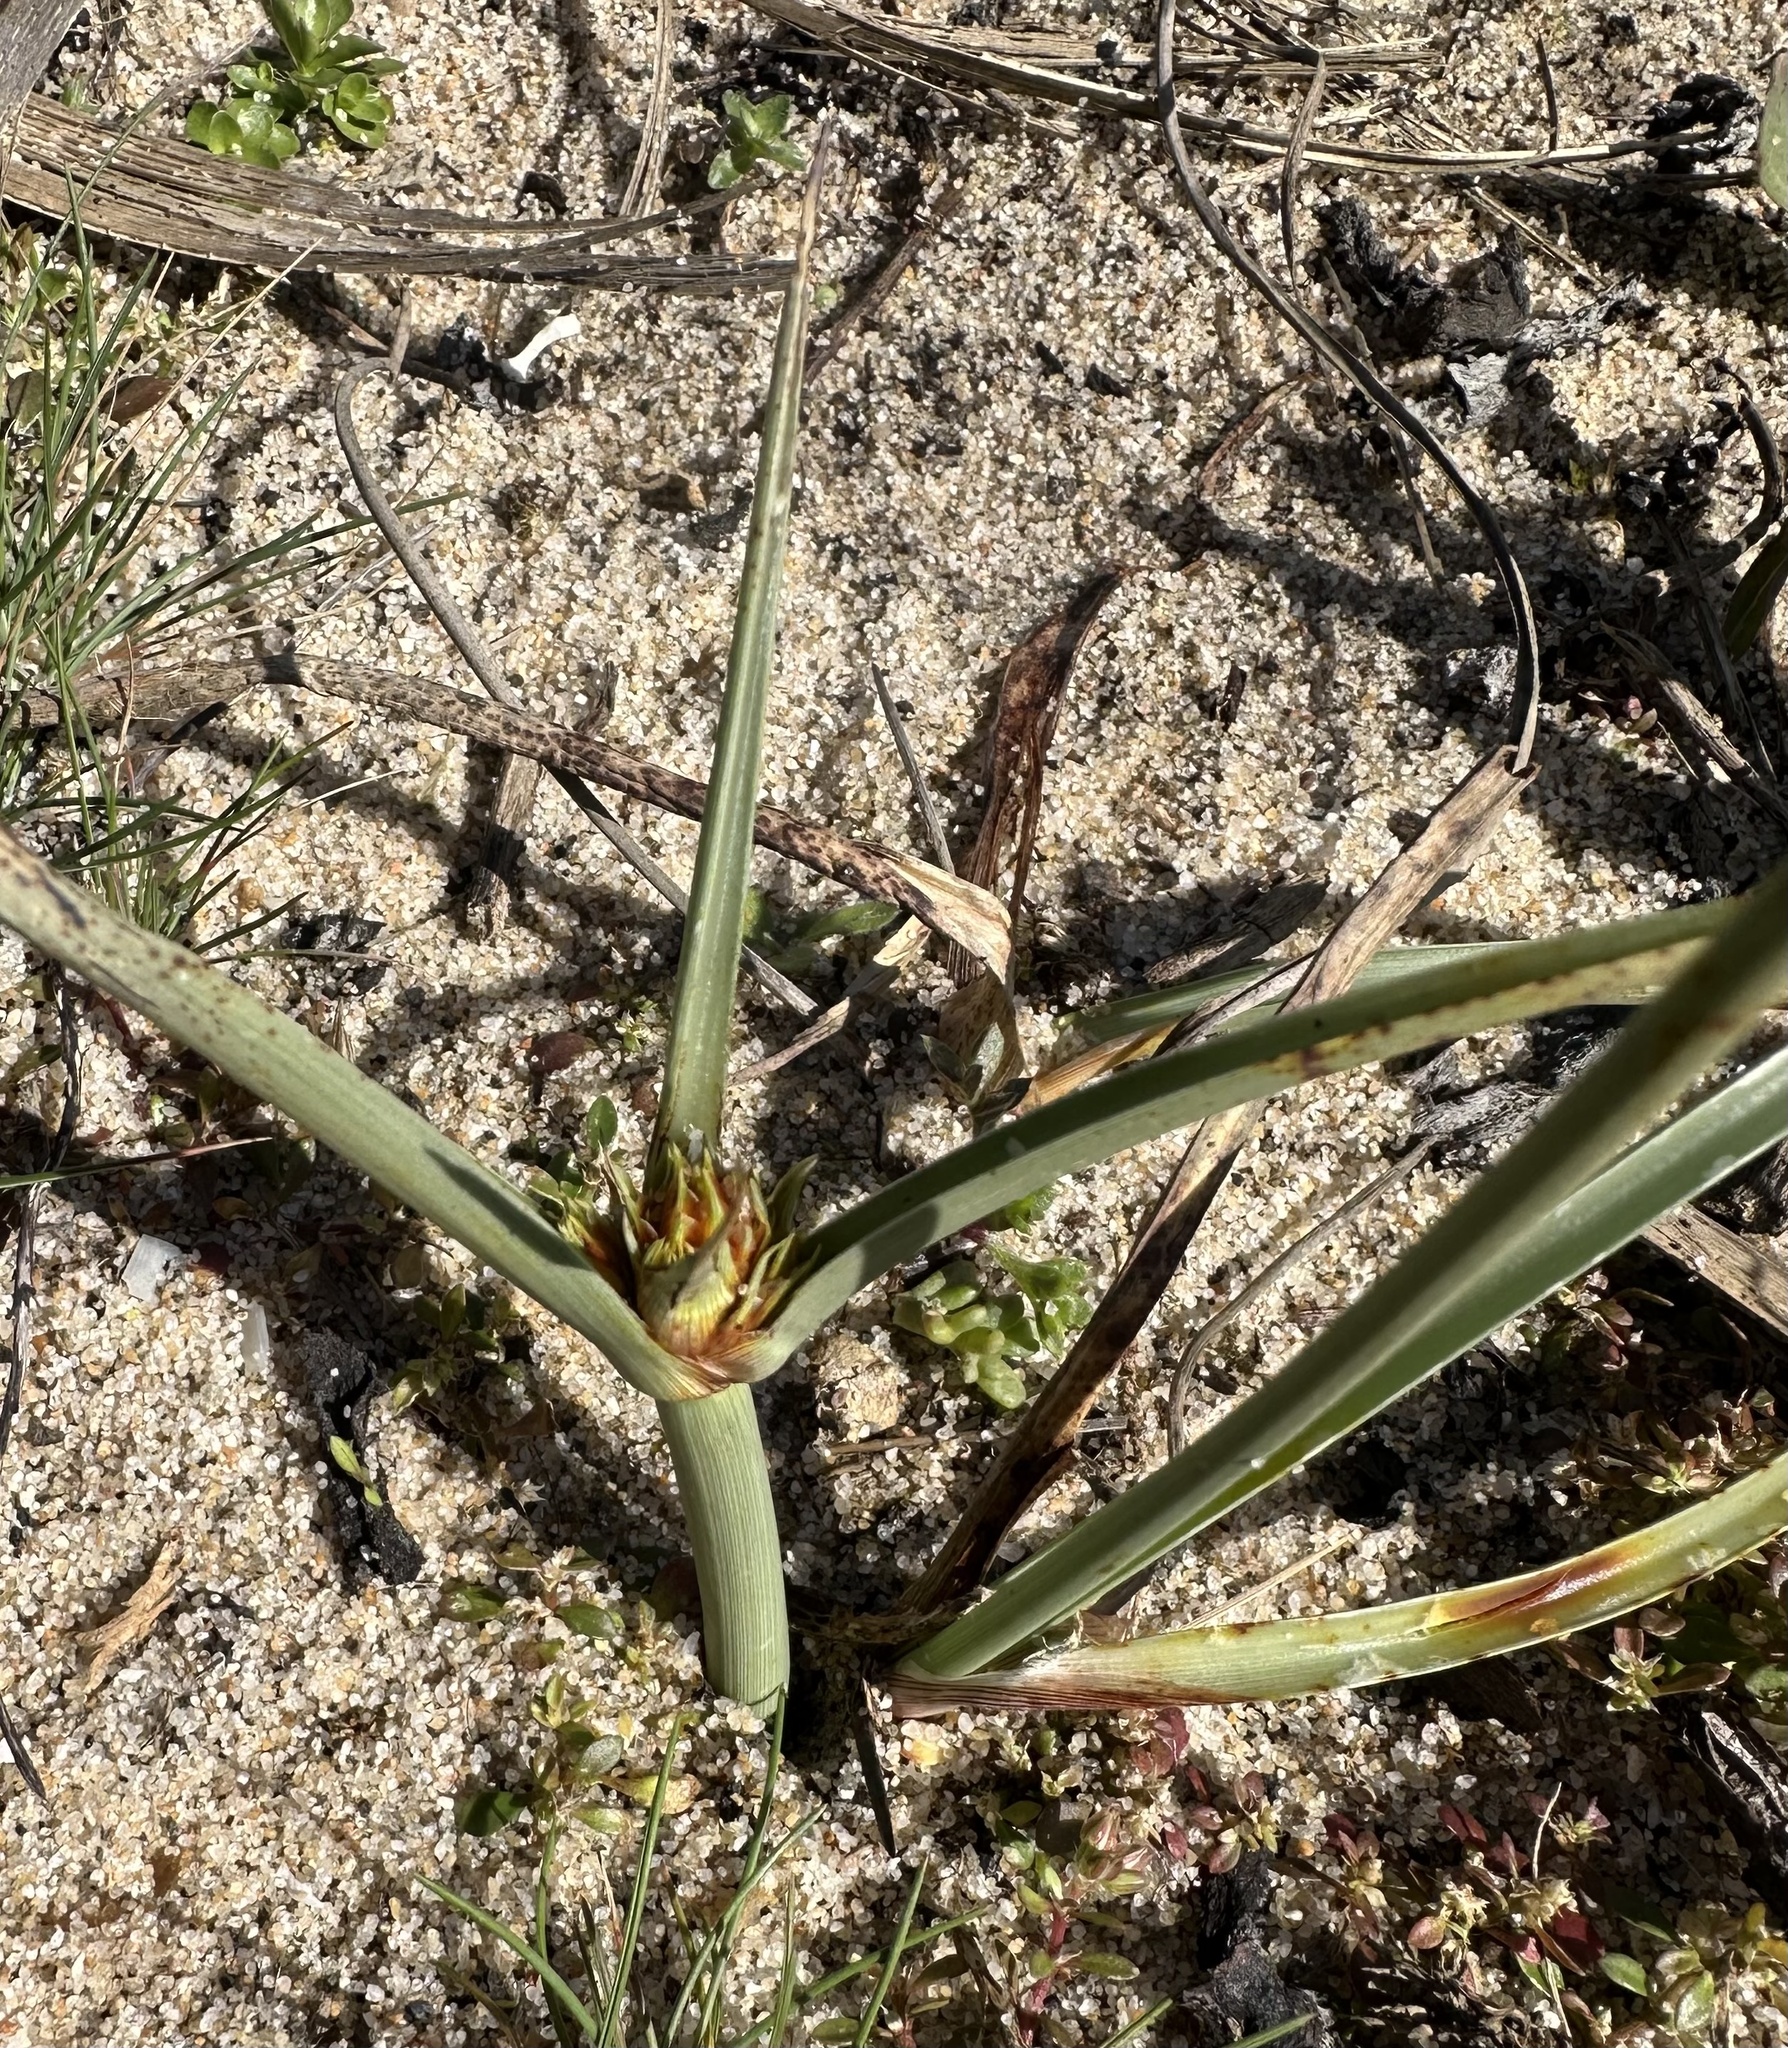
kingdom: Plantae
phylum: Tracheophyta
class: Liliopsida
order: Poales
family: Cyperaceae
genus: Cyperus
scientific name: Cyperus capitatus
